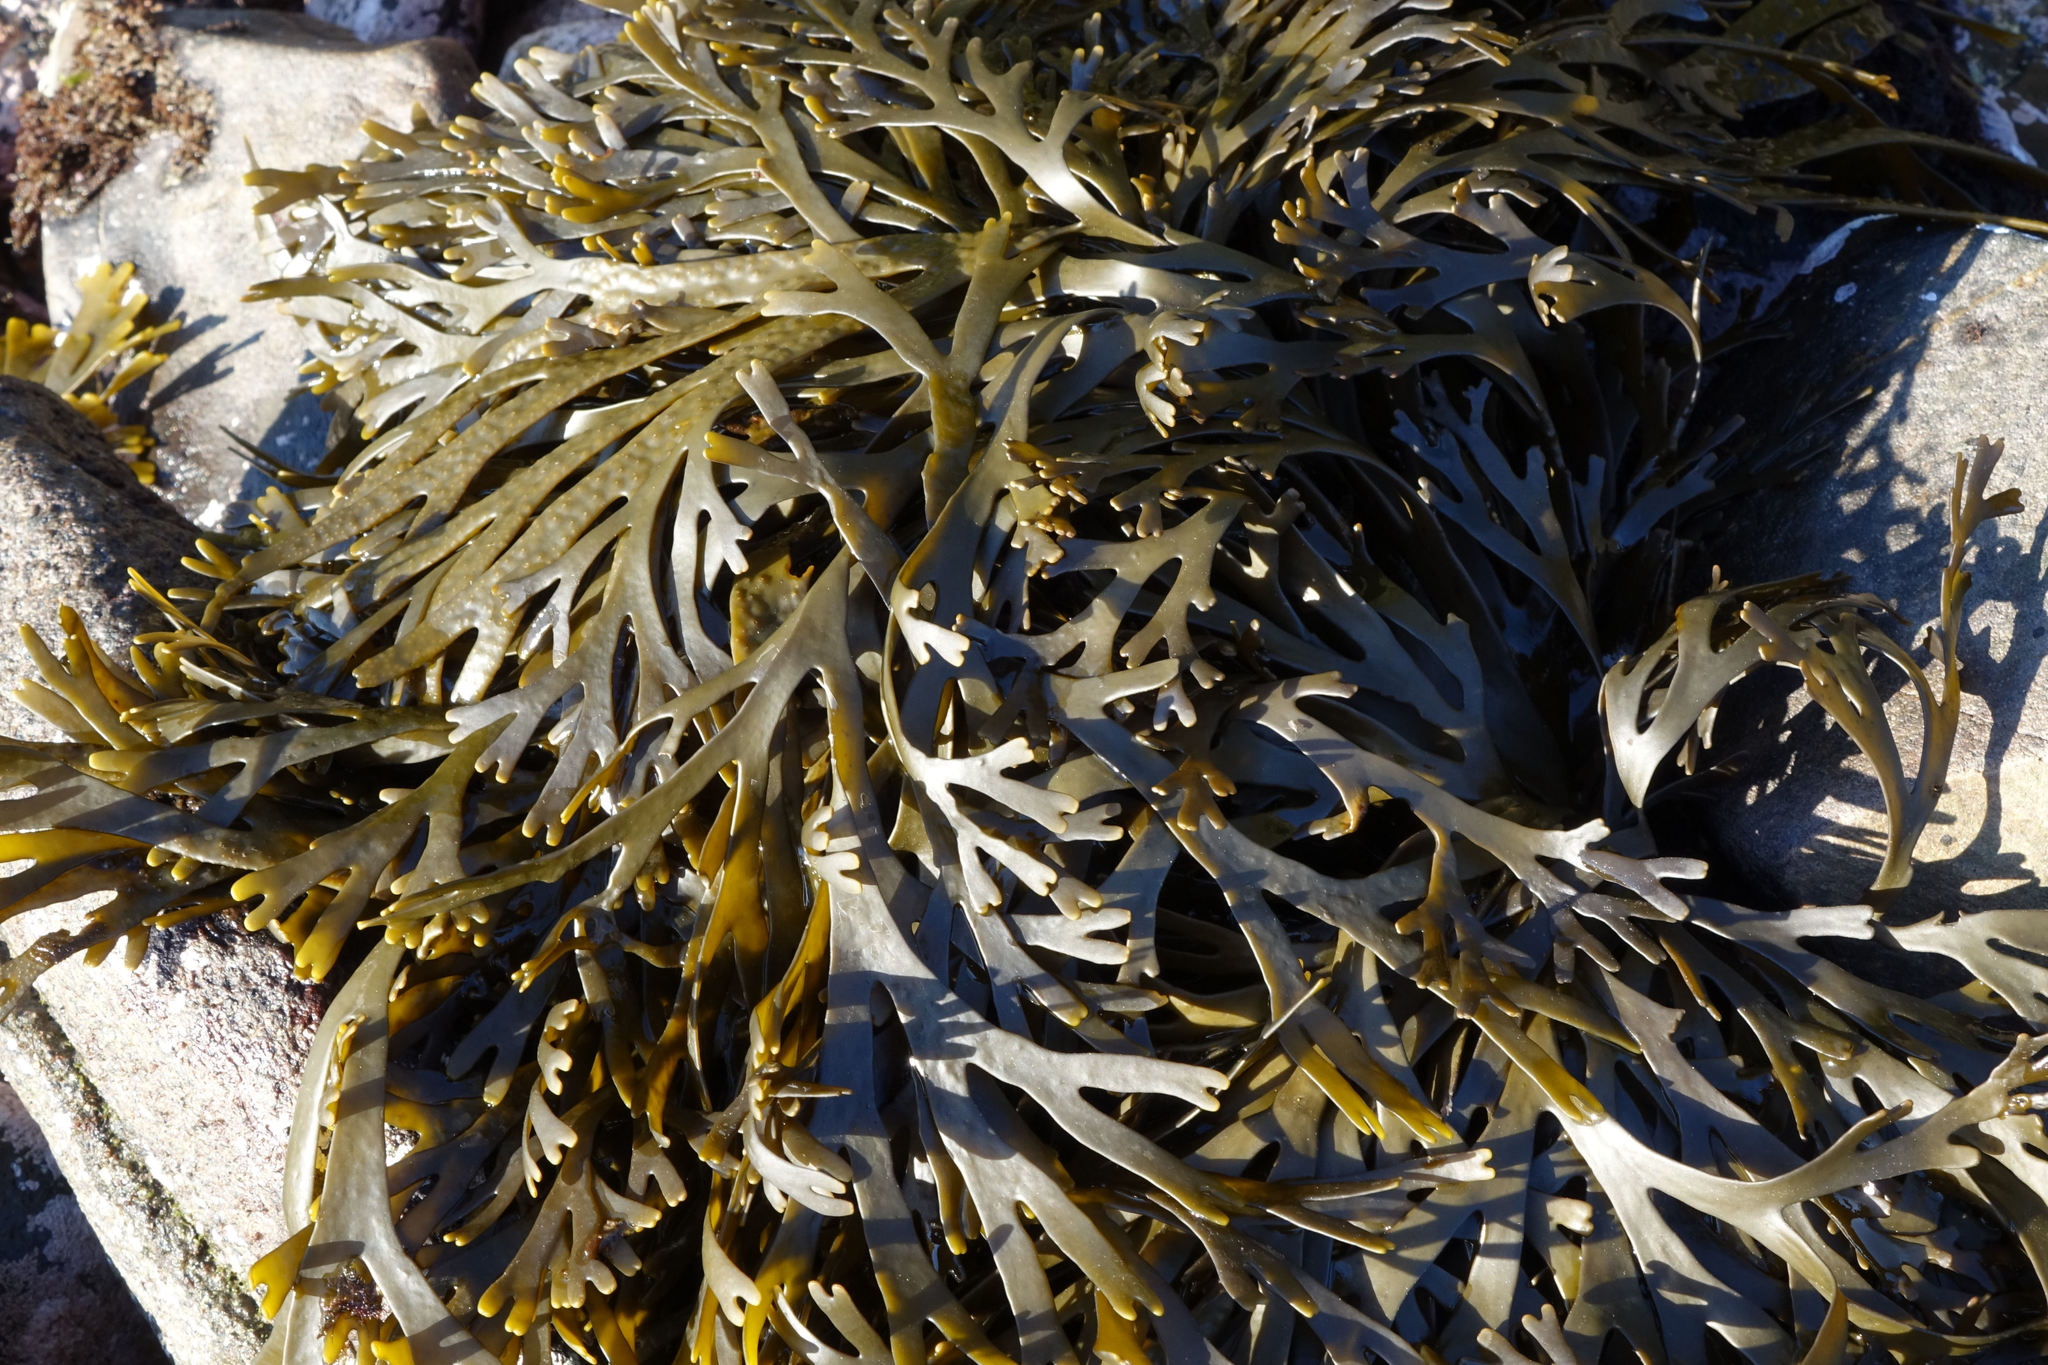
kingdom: Chromista
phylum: Ochrophyta
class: Phaeophyceae
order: Fucales
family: Xiphophoraceae
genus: Xiphophora
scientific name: Xiphophora gladiata
